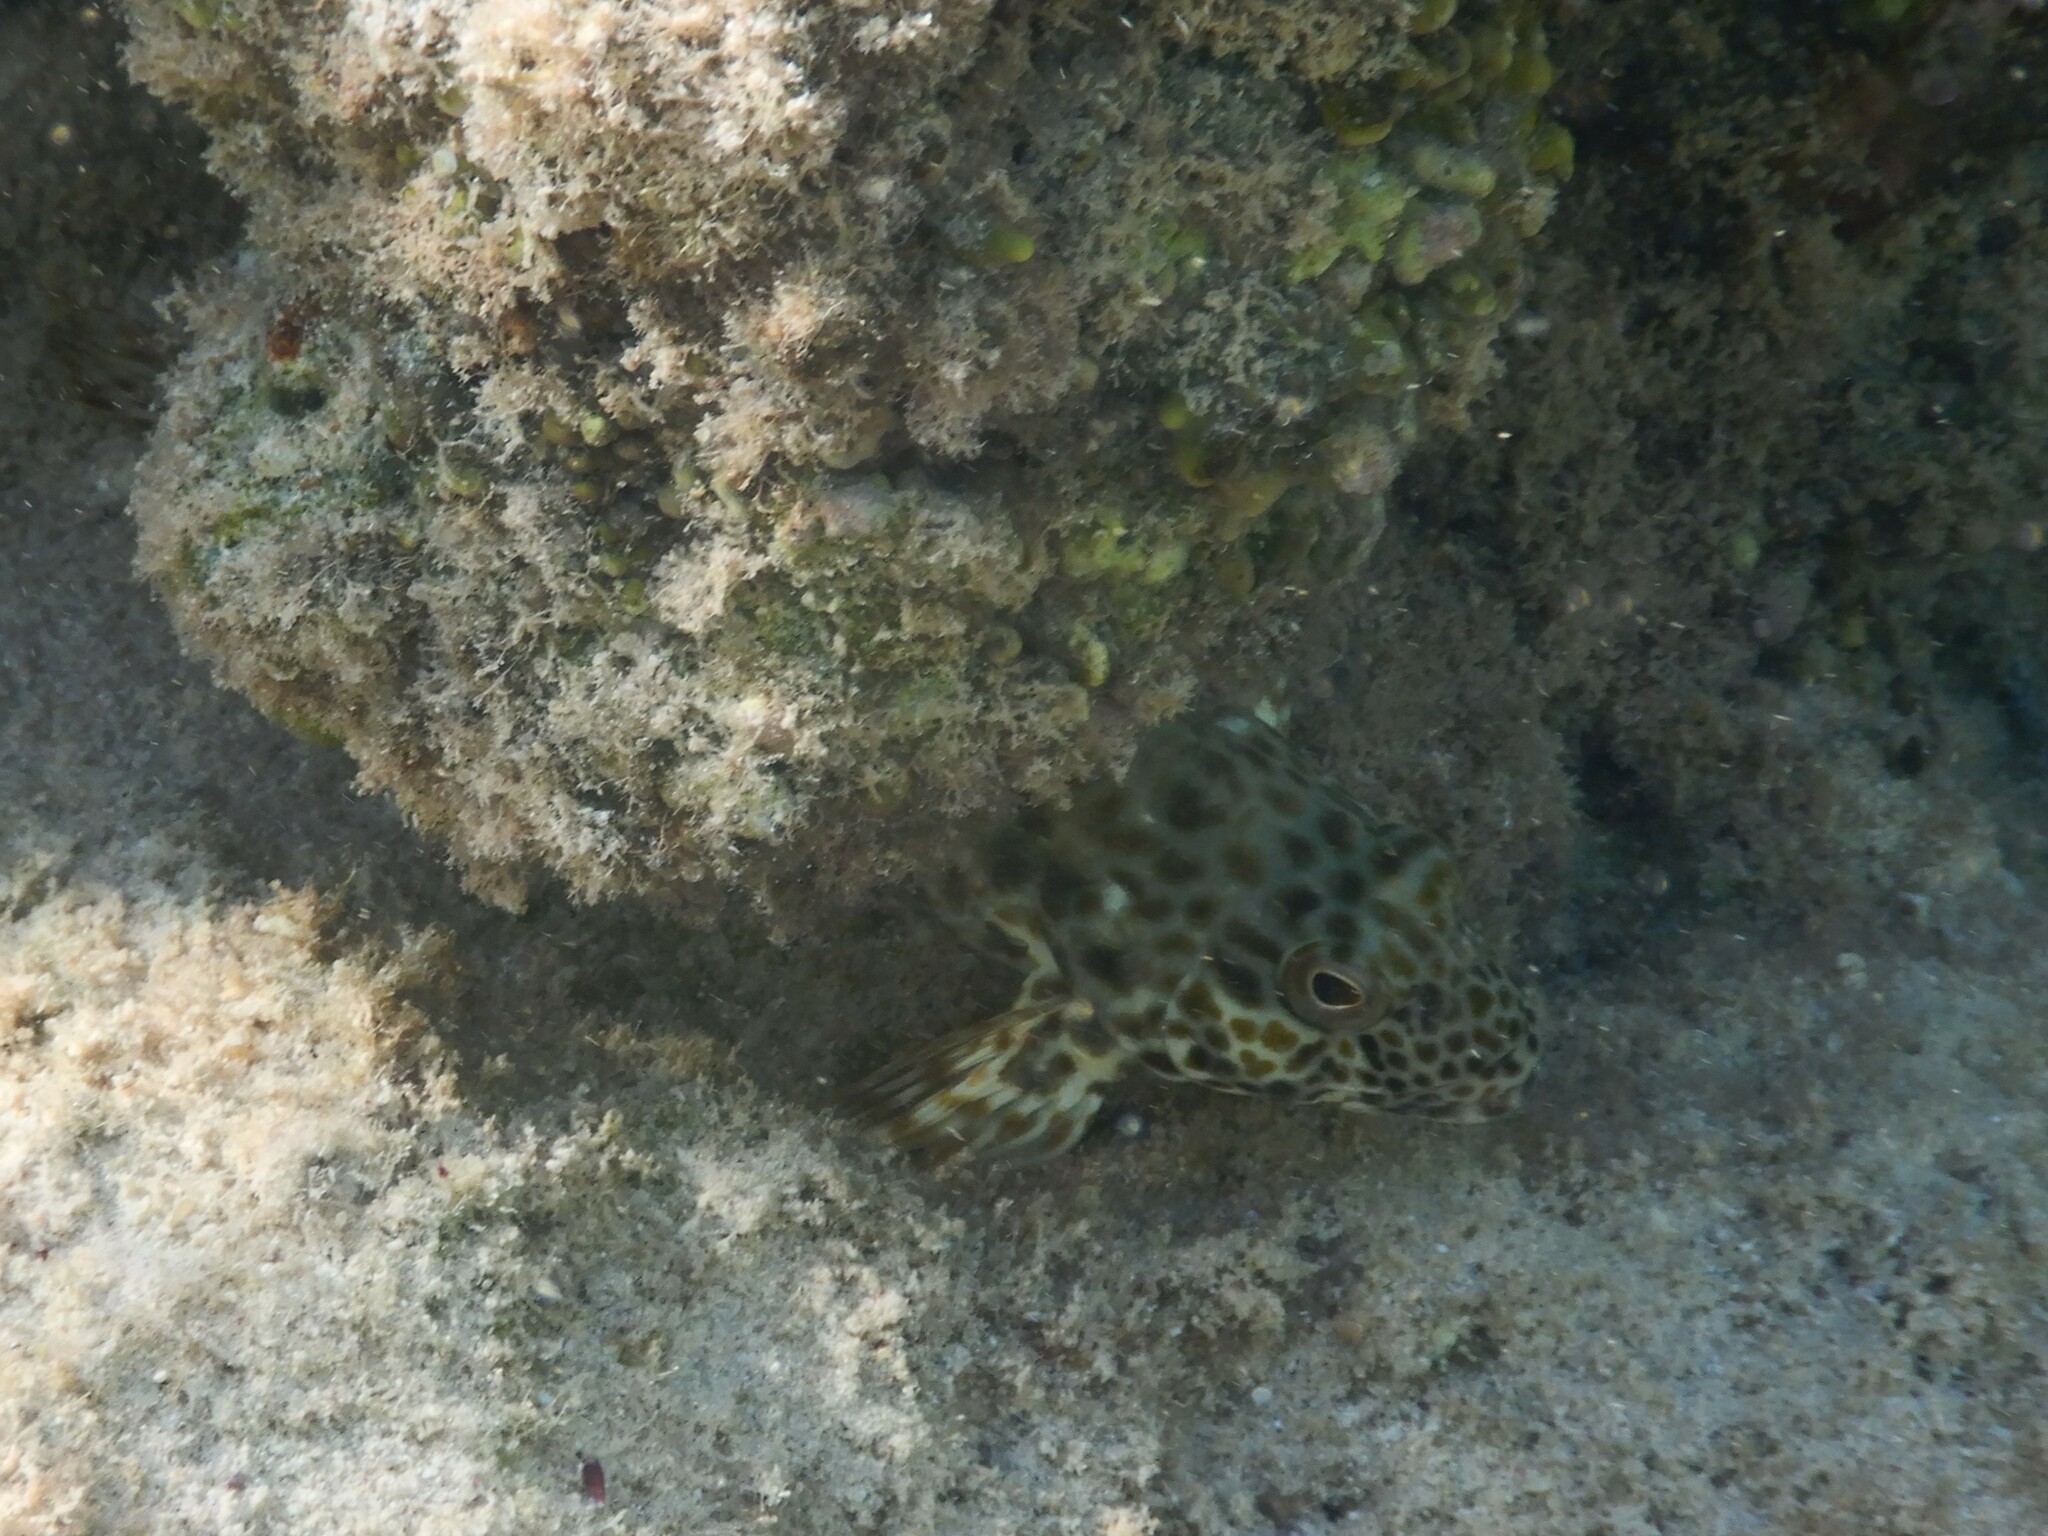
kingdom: Animalia
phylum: Chordata
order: Perciformes
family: Serranidae
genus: Epinephelus
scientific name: Epinephelus tauvina
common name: Greasy grouper
